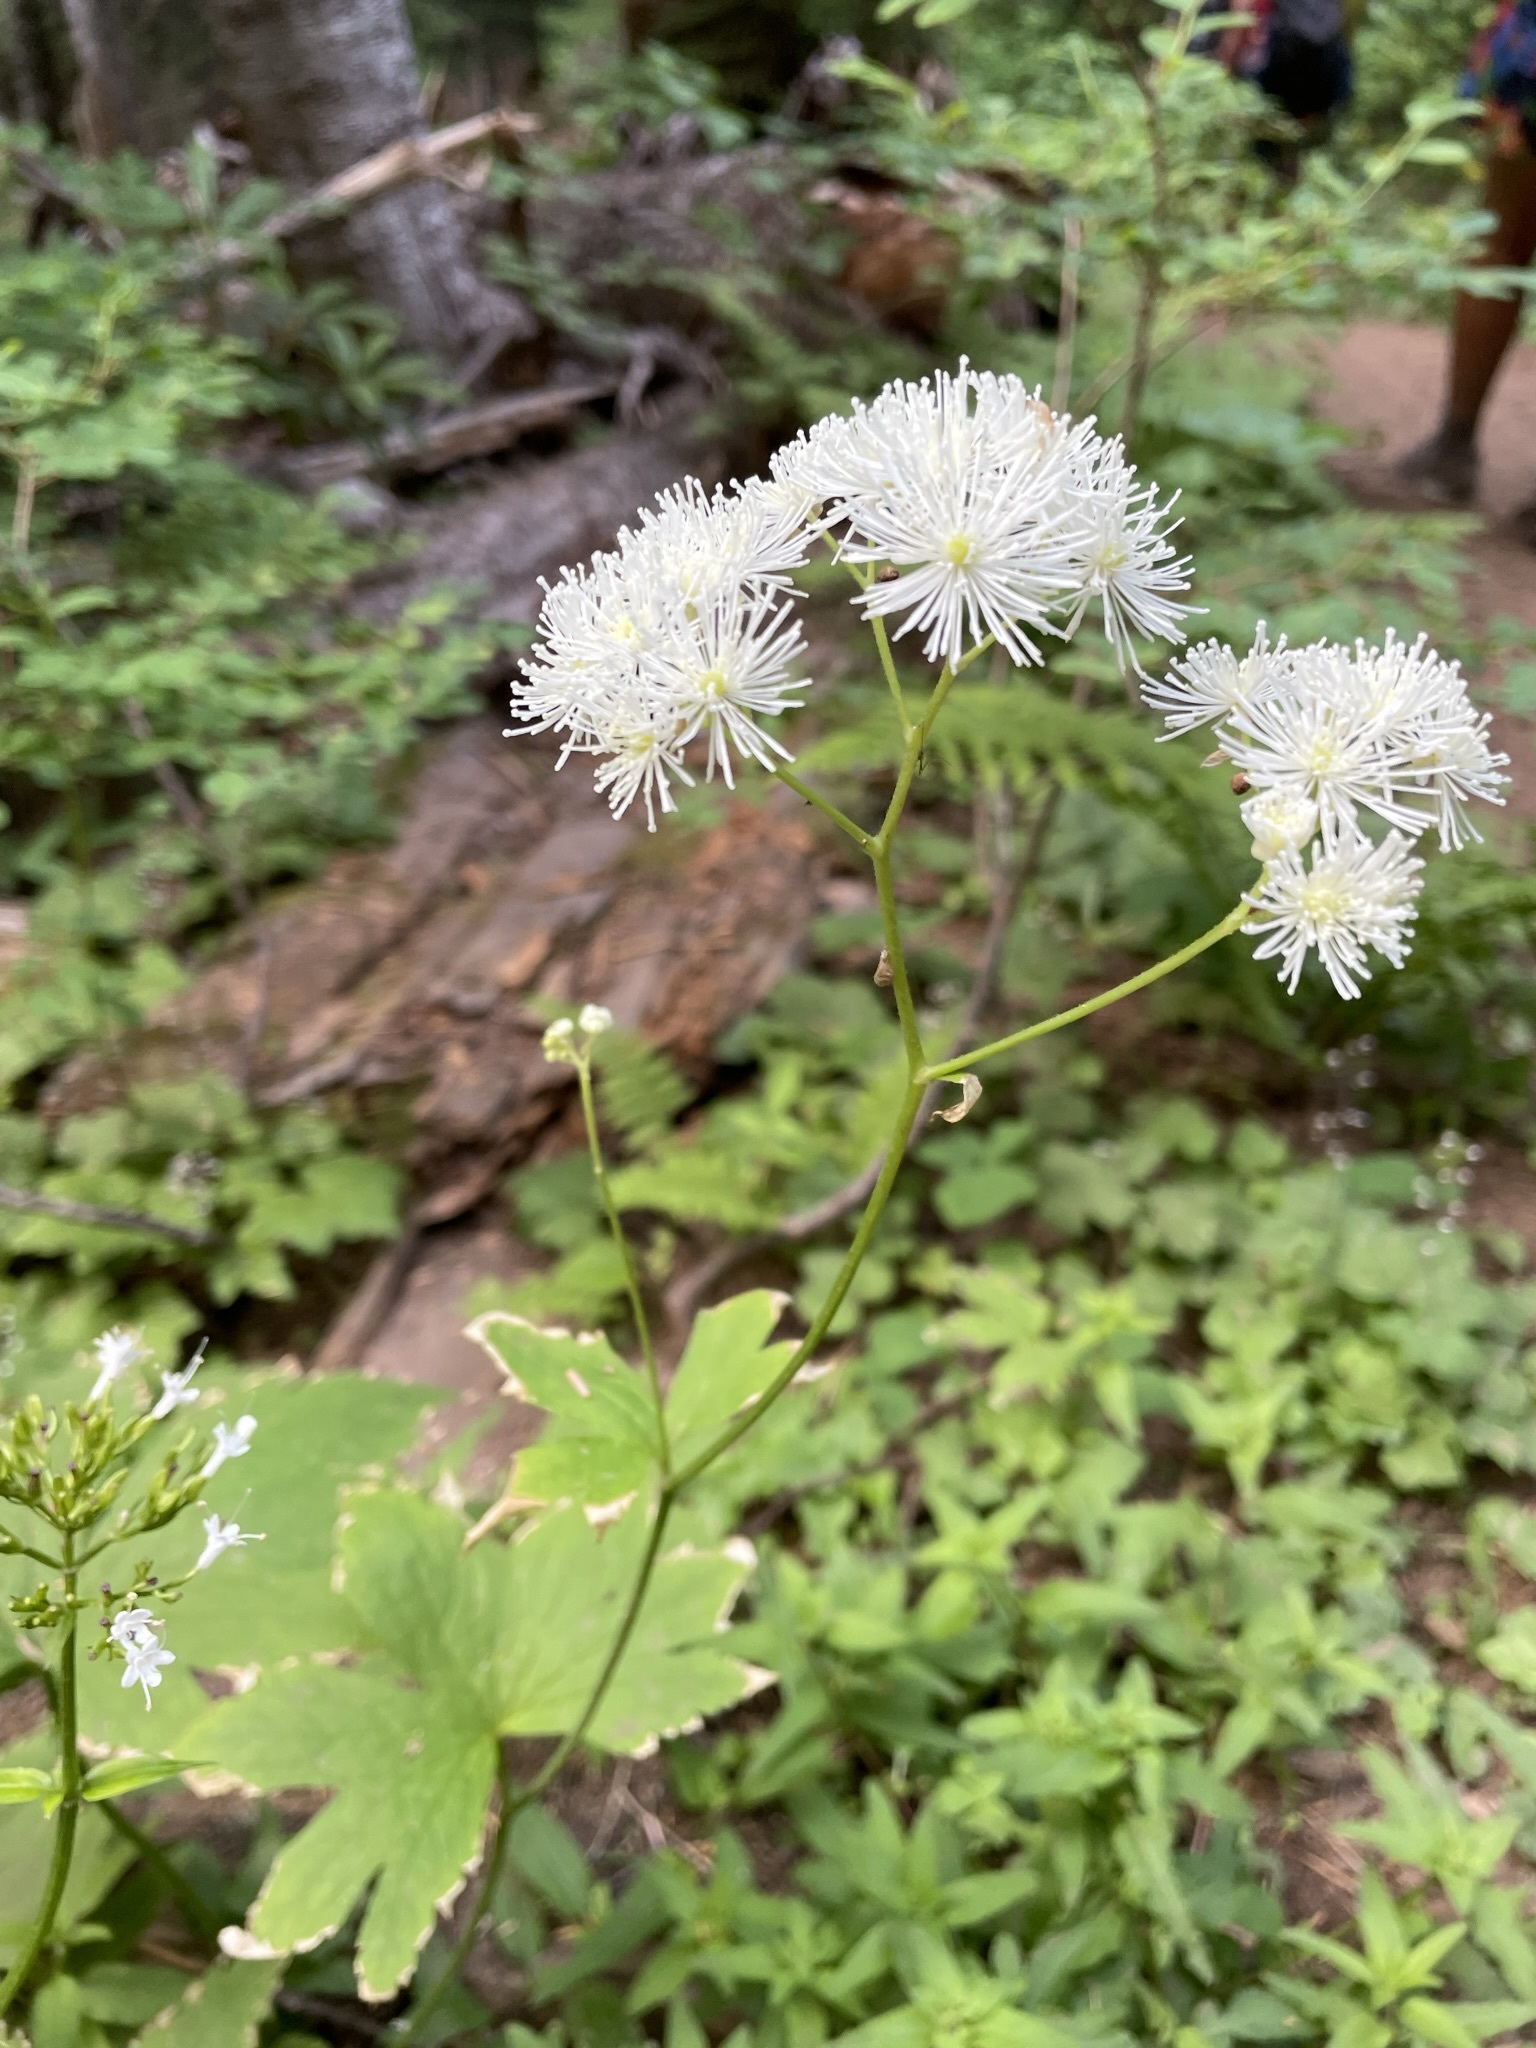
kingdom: Plantae
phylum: Tracheophyta
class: Magnoliopsida
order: Ranunculales
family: Ranunculaceae
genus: Trautvetteria
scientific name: Trautvetteria carolinensis
